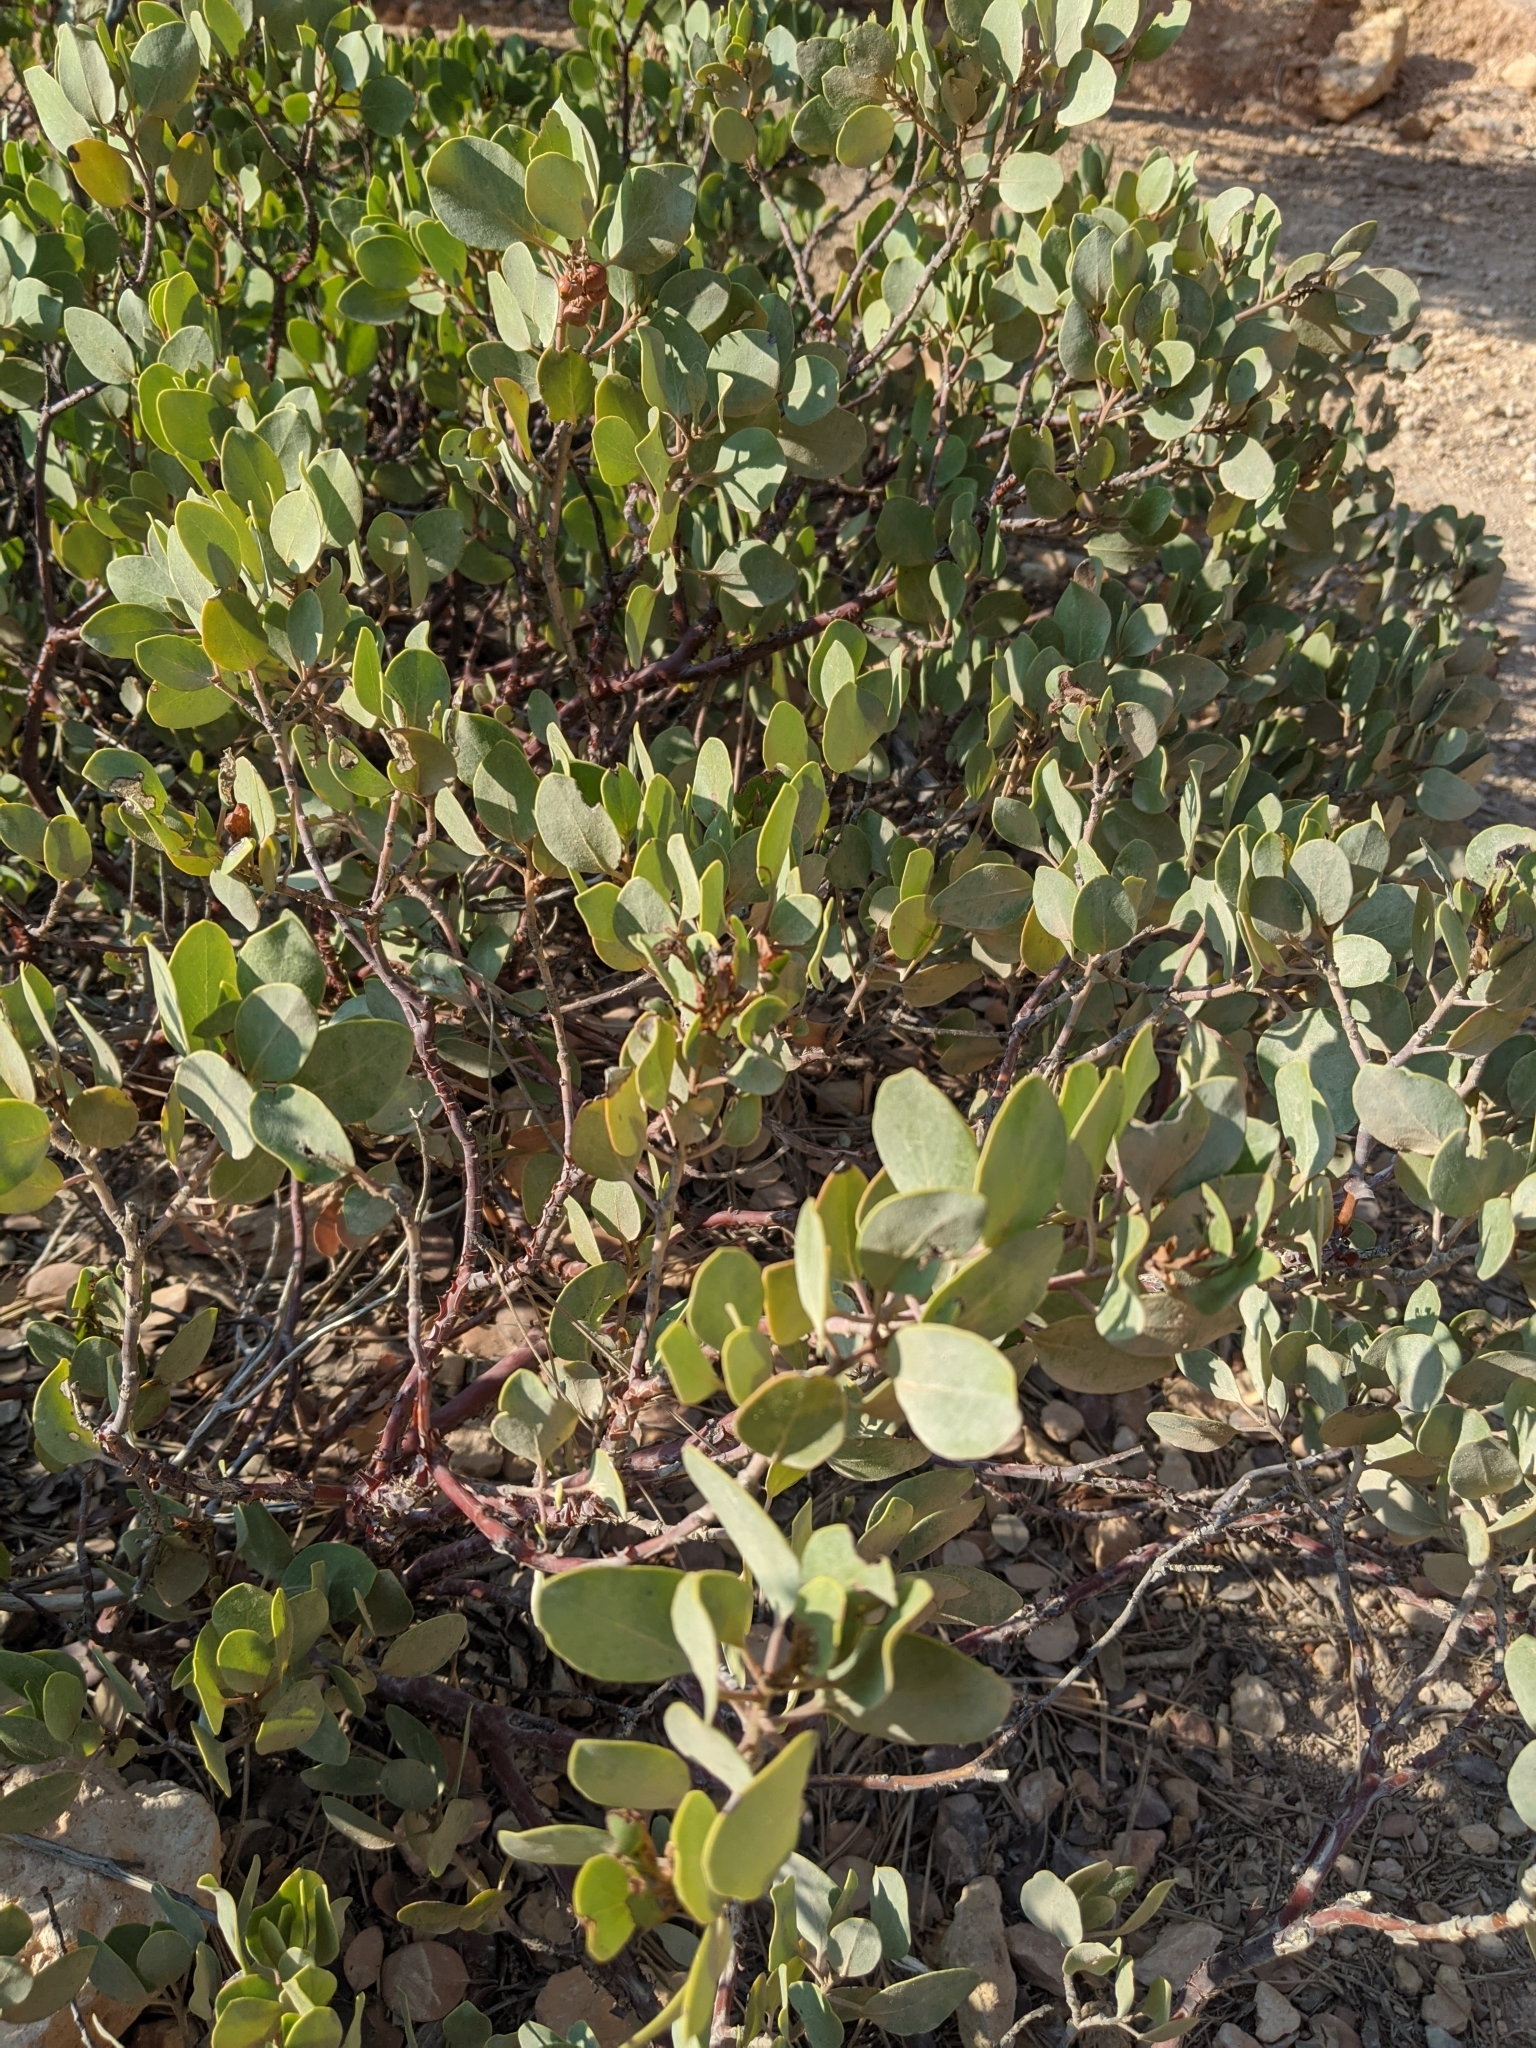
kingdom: Plantae
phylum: Tracheophyta
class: Magnoliopsida
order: Ericales
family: Ericaceae
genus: Arctostaphylos
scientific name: Arctostaphylos patula
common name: Green-leaf manzanita
